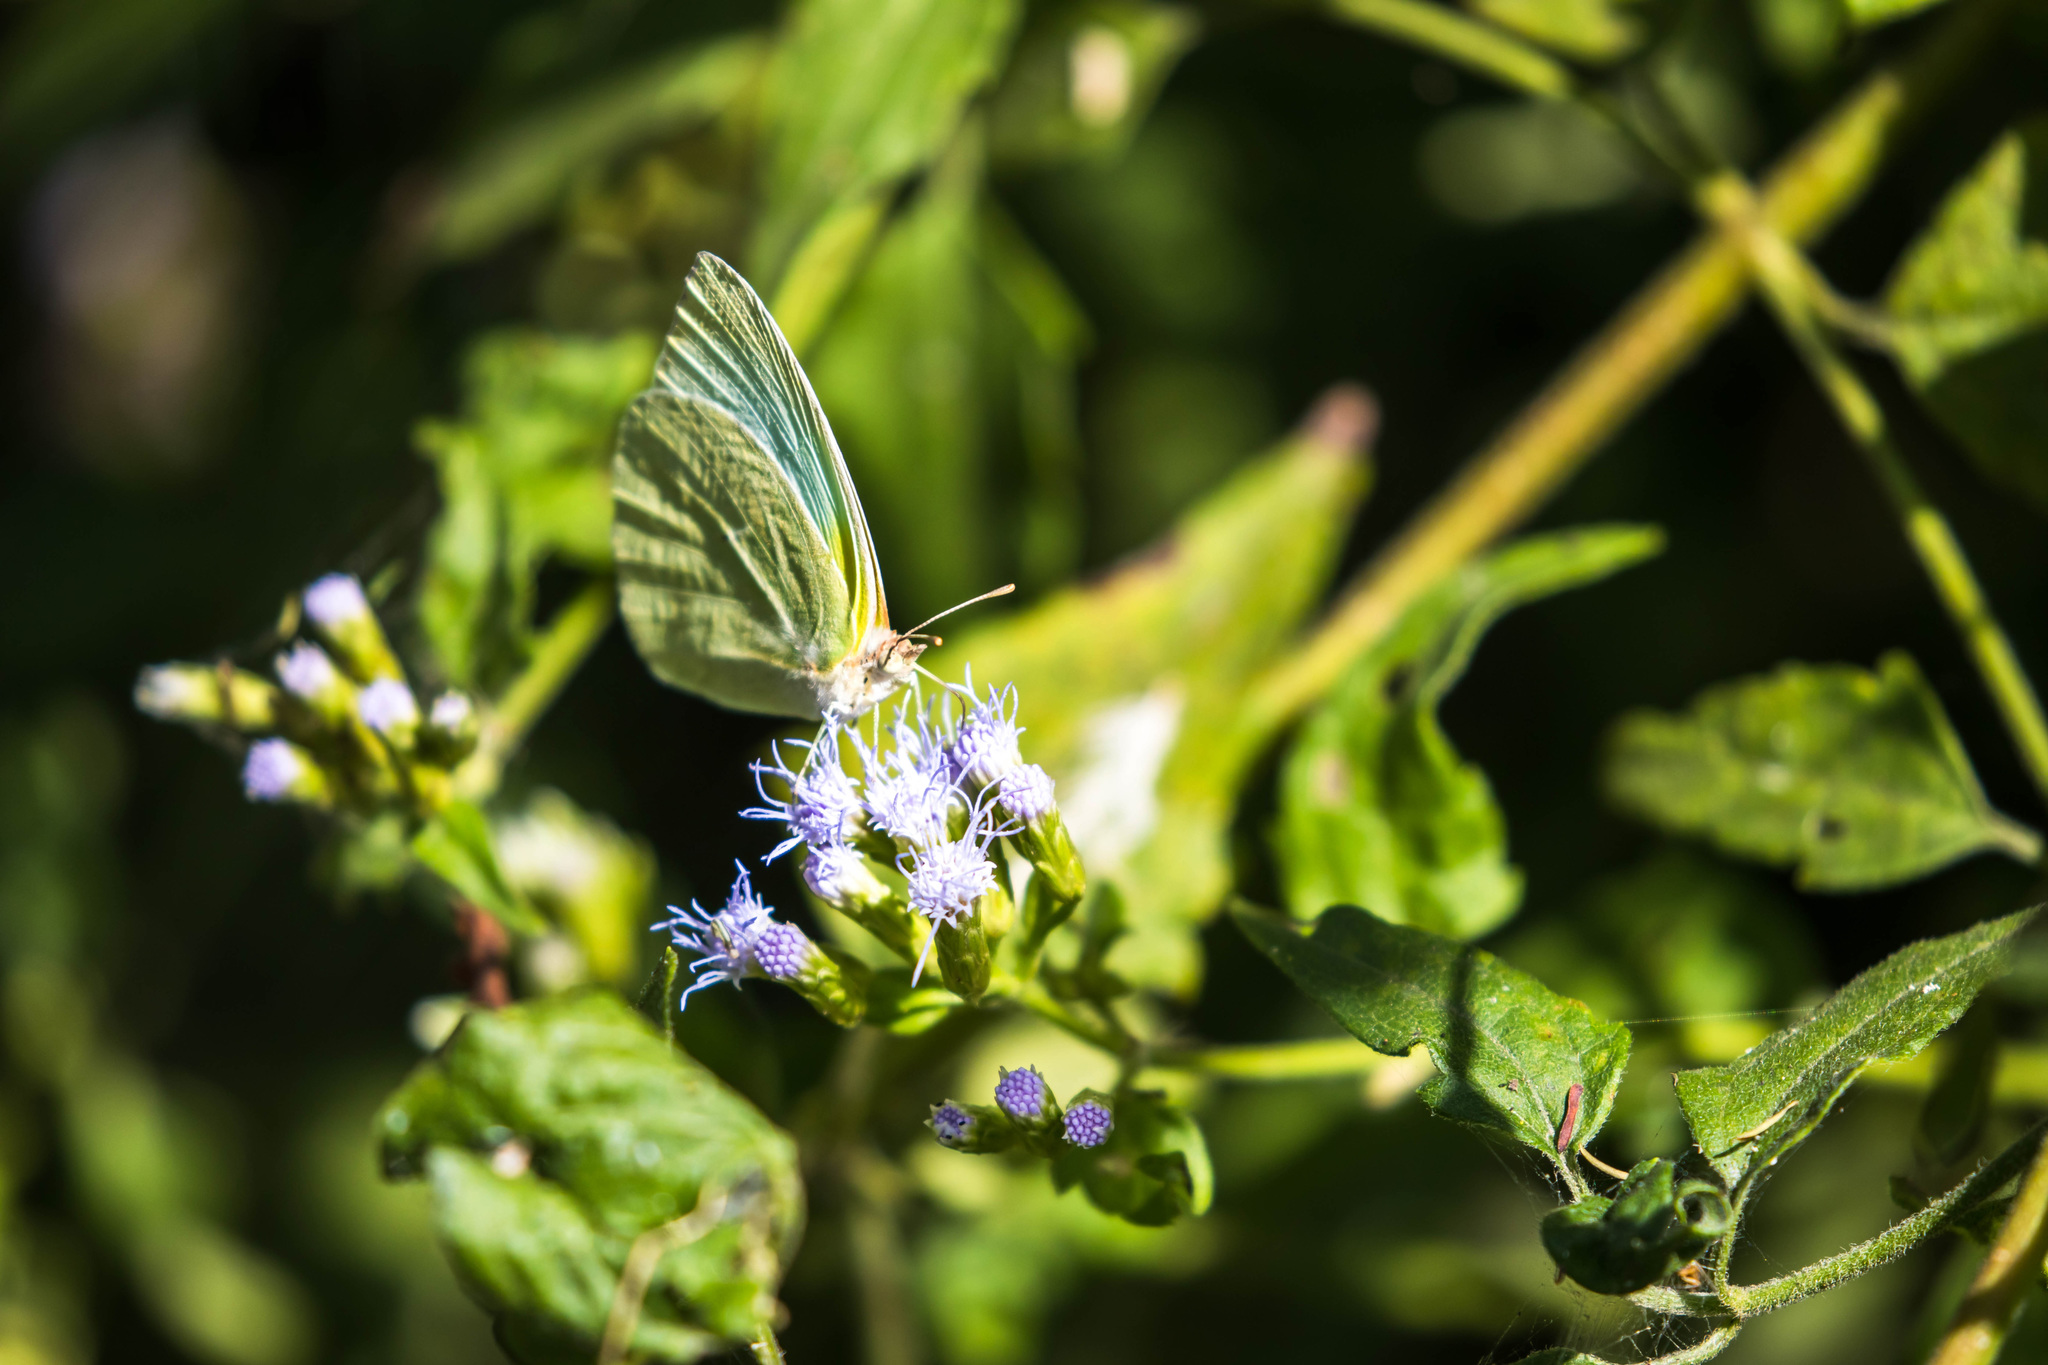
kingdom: Animalia
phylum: Arthropoda
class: Insecta
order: Lepidoptera
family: Pieridae
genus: Kricogonia
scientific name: Kricogonia lyside
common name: Guayacan sulphur,
